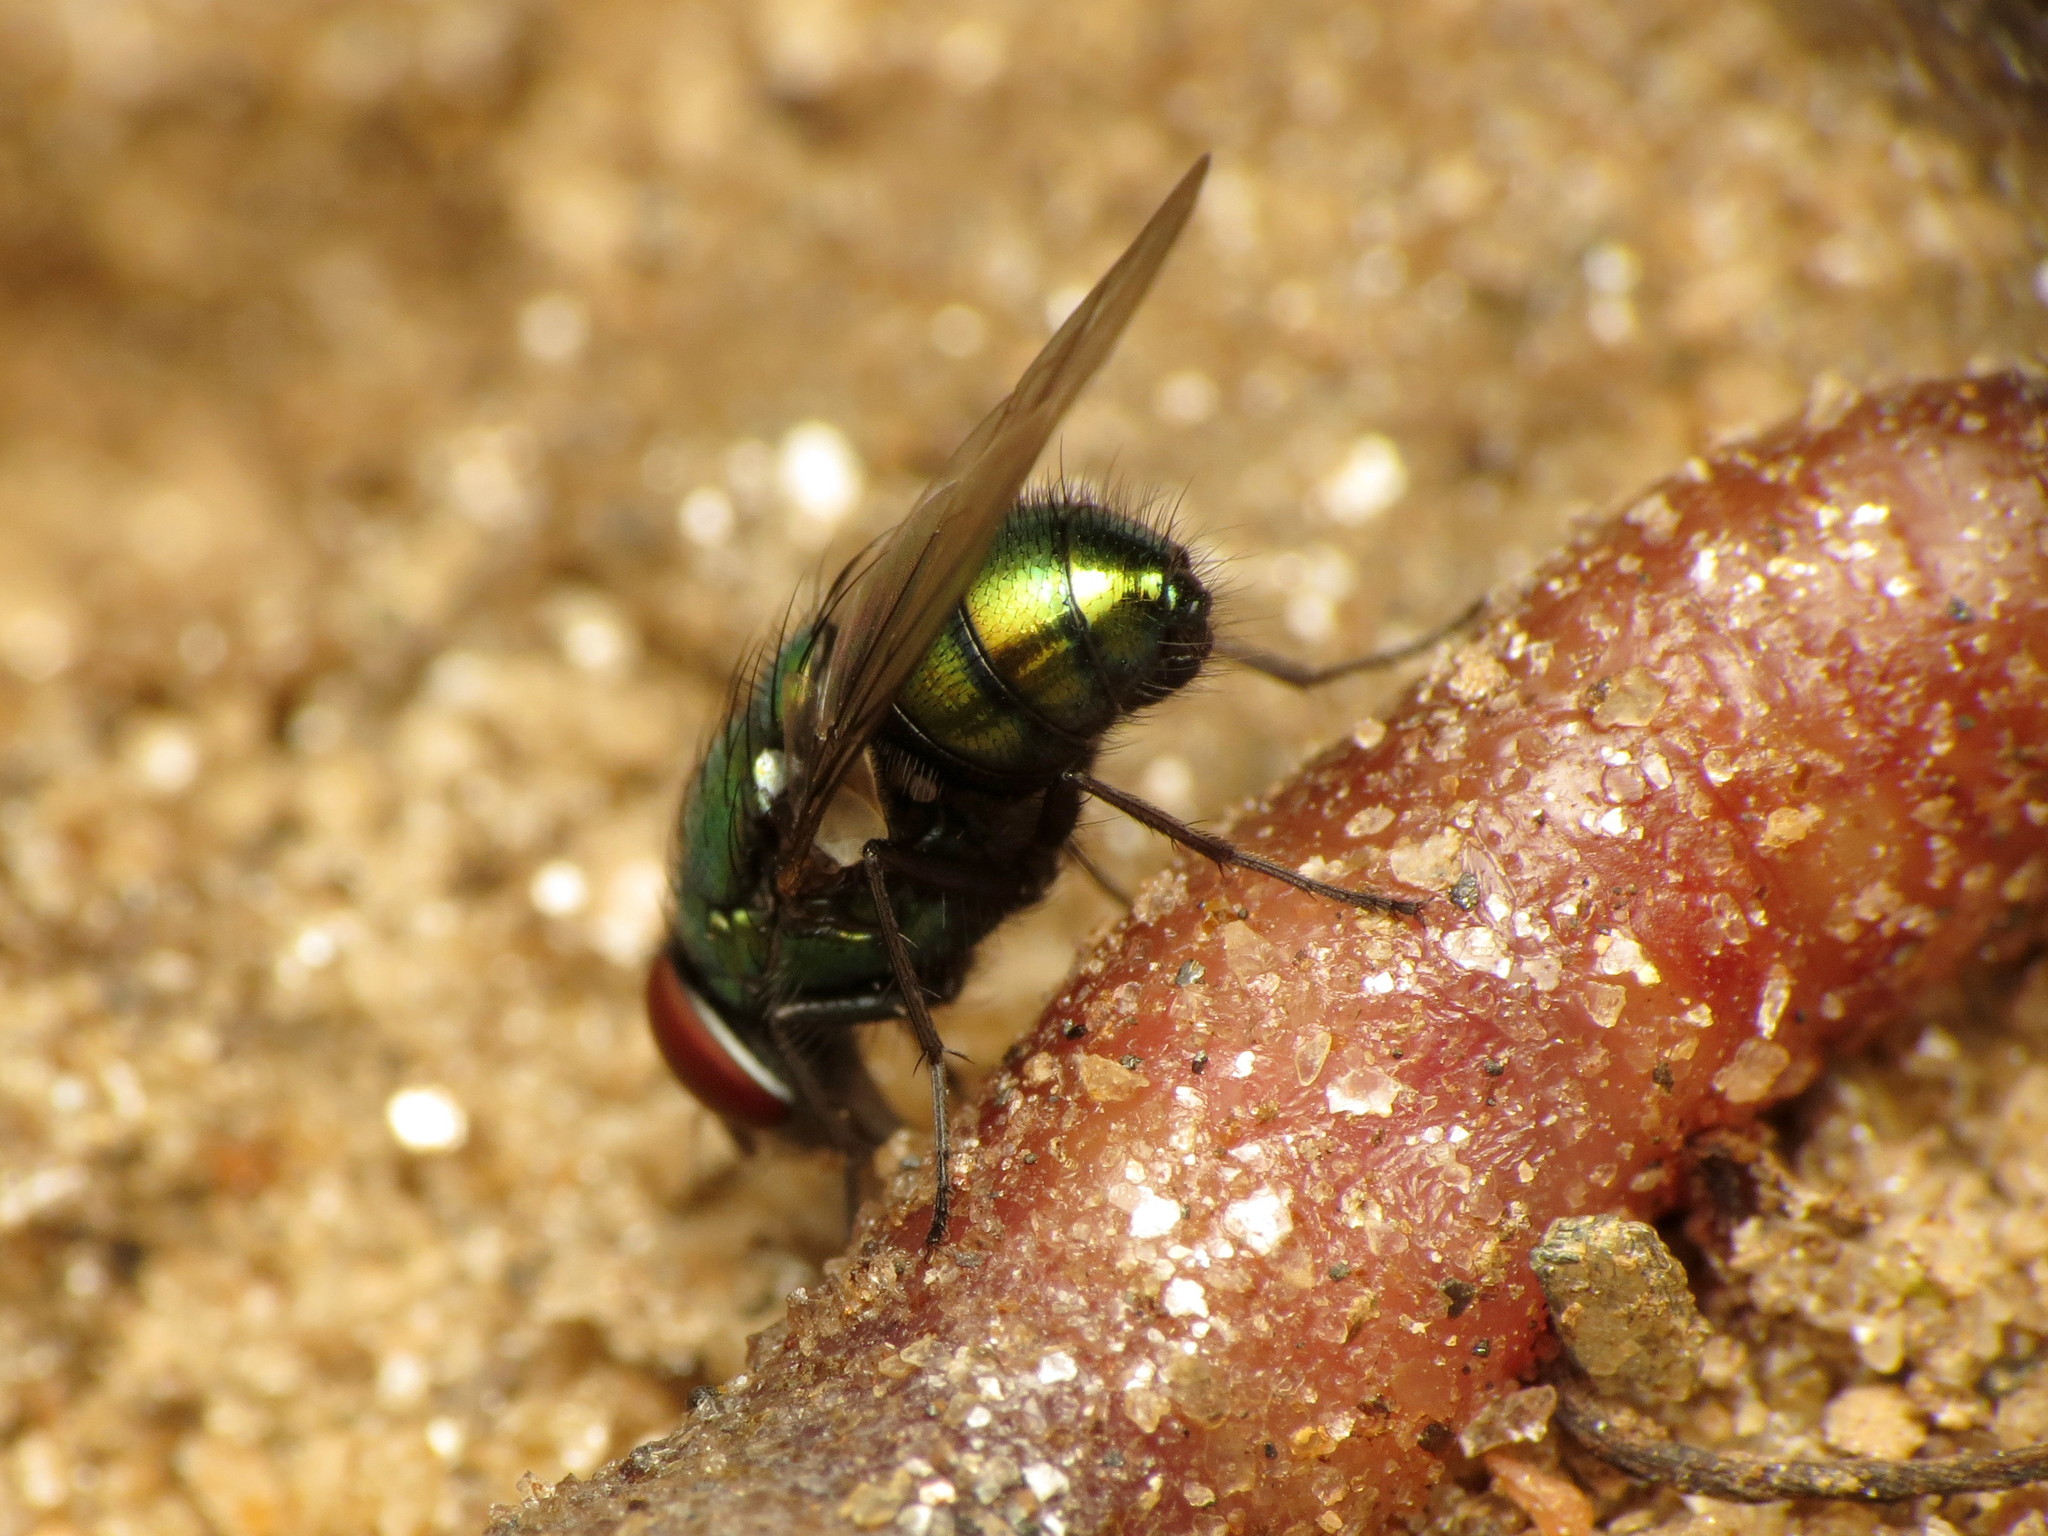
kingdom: Animalia
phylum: Arthropoda
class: Insecta
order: Diptera
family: Calliphoridae
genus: Lucilia
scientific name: Lucilia caeruleiviridis
